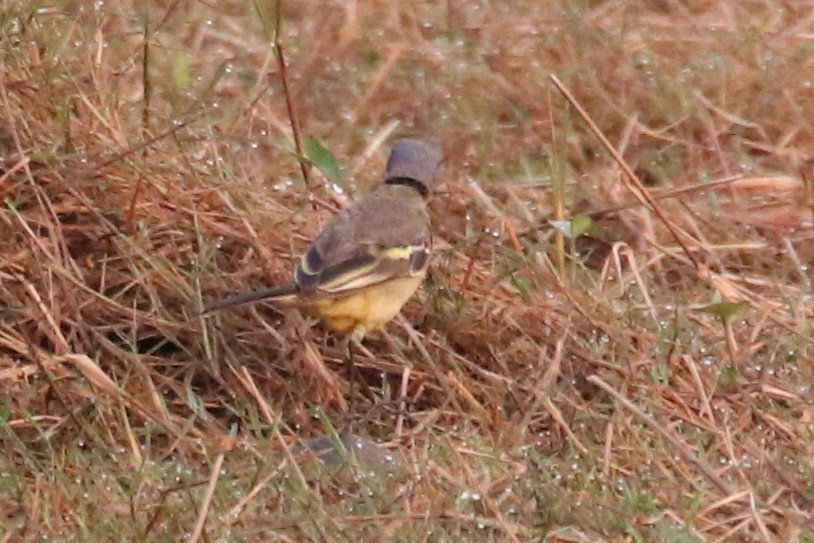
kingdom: Animalia
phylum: Chordata
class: Aves
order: Passeriformes
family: Motacillidae
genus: Motacilla
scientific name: Motacilla tschutschensis
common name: Eastern yellow wagtail
